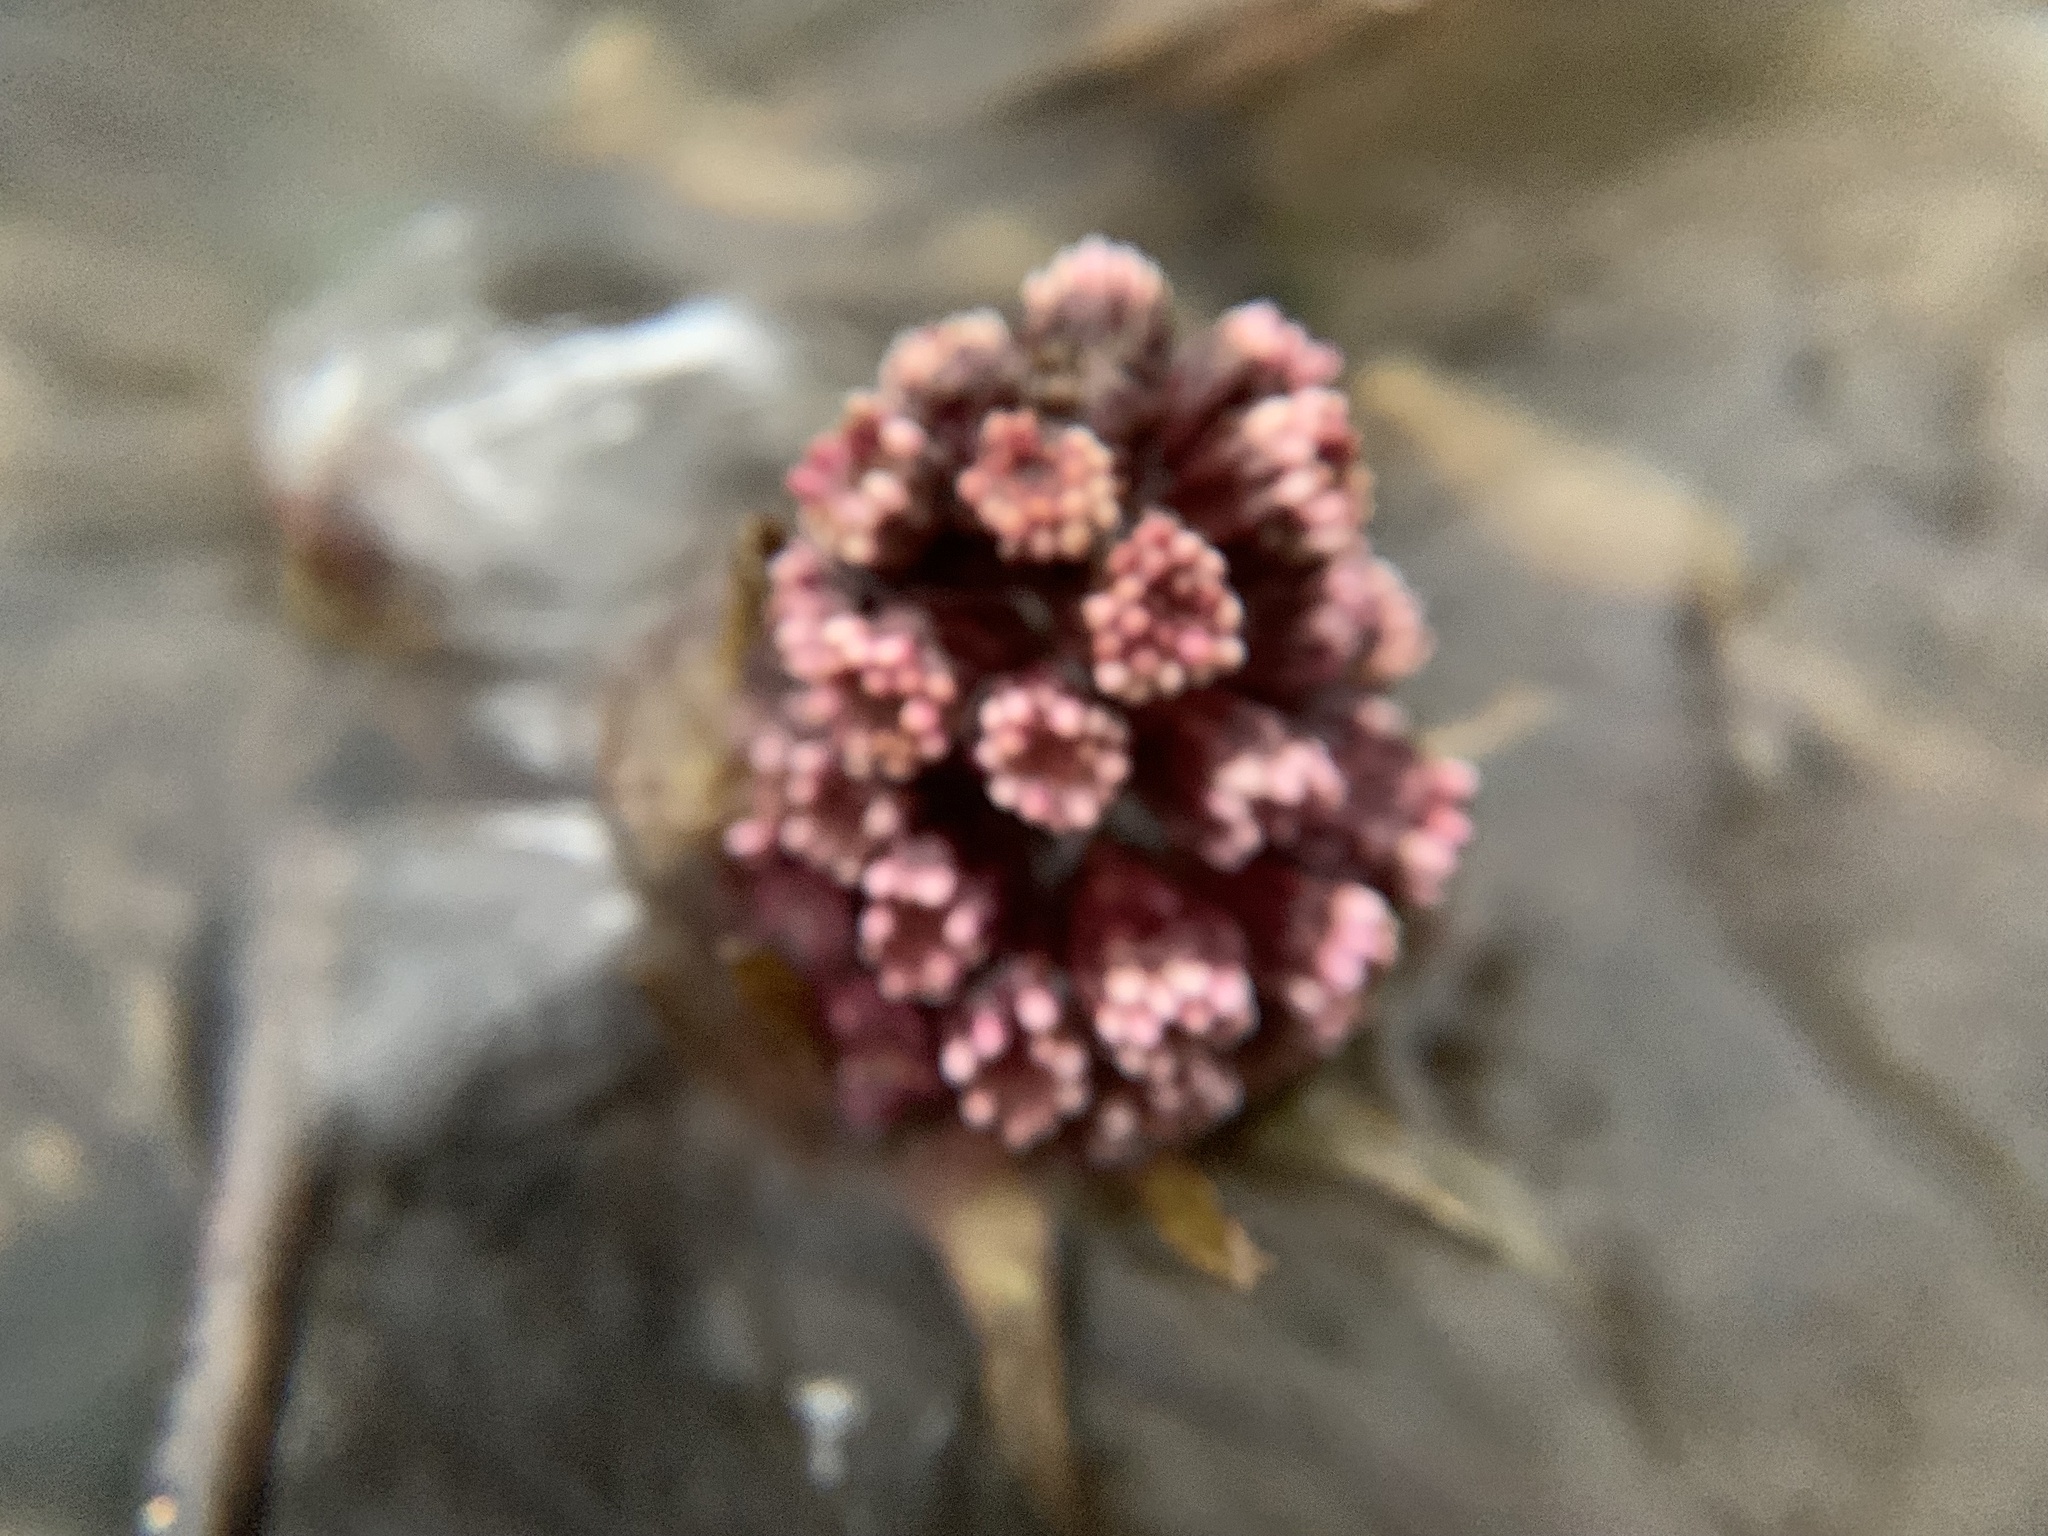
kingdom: Plantae
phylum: Tracheophyta
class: Magnoliopsida
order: Asterales
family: Asteraceae
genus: Petasites
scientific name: Petasites hybridus
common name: Butterbur
